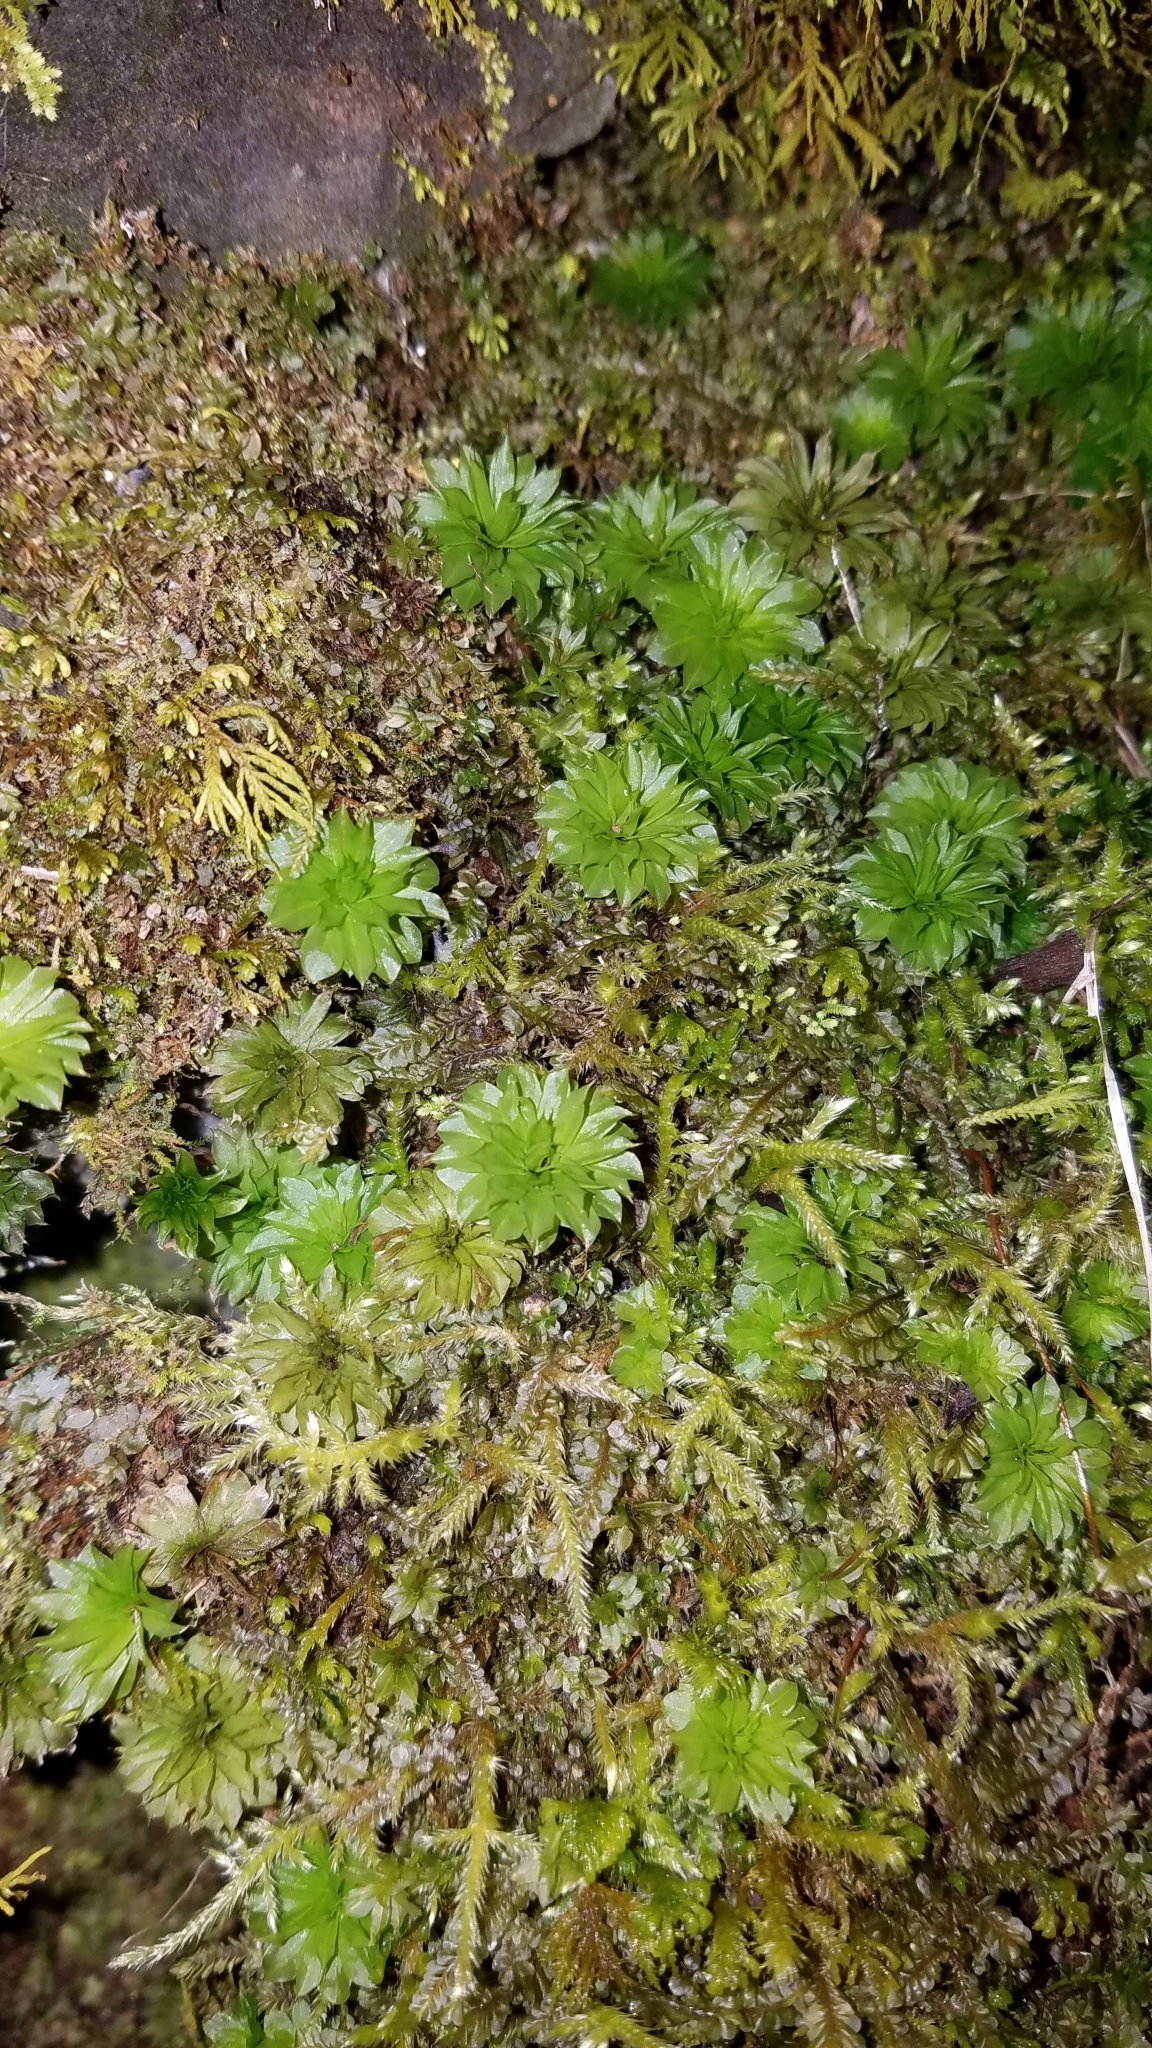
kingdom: Plantae
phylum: Bryophyta
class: Bryopsida
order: Bryales
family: Bryaceae
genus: Rhodobryum
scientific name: Rhodobryum ontariense
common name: Ontario rhodobryum moss
